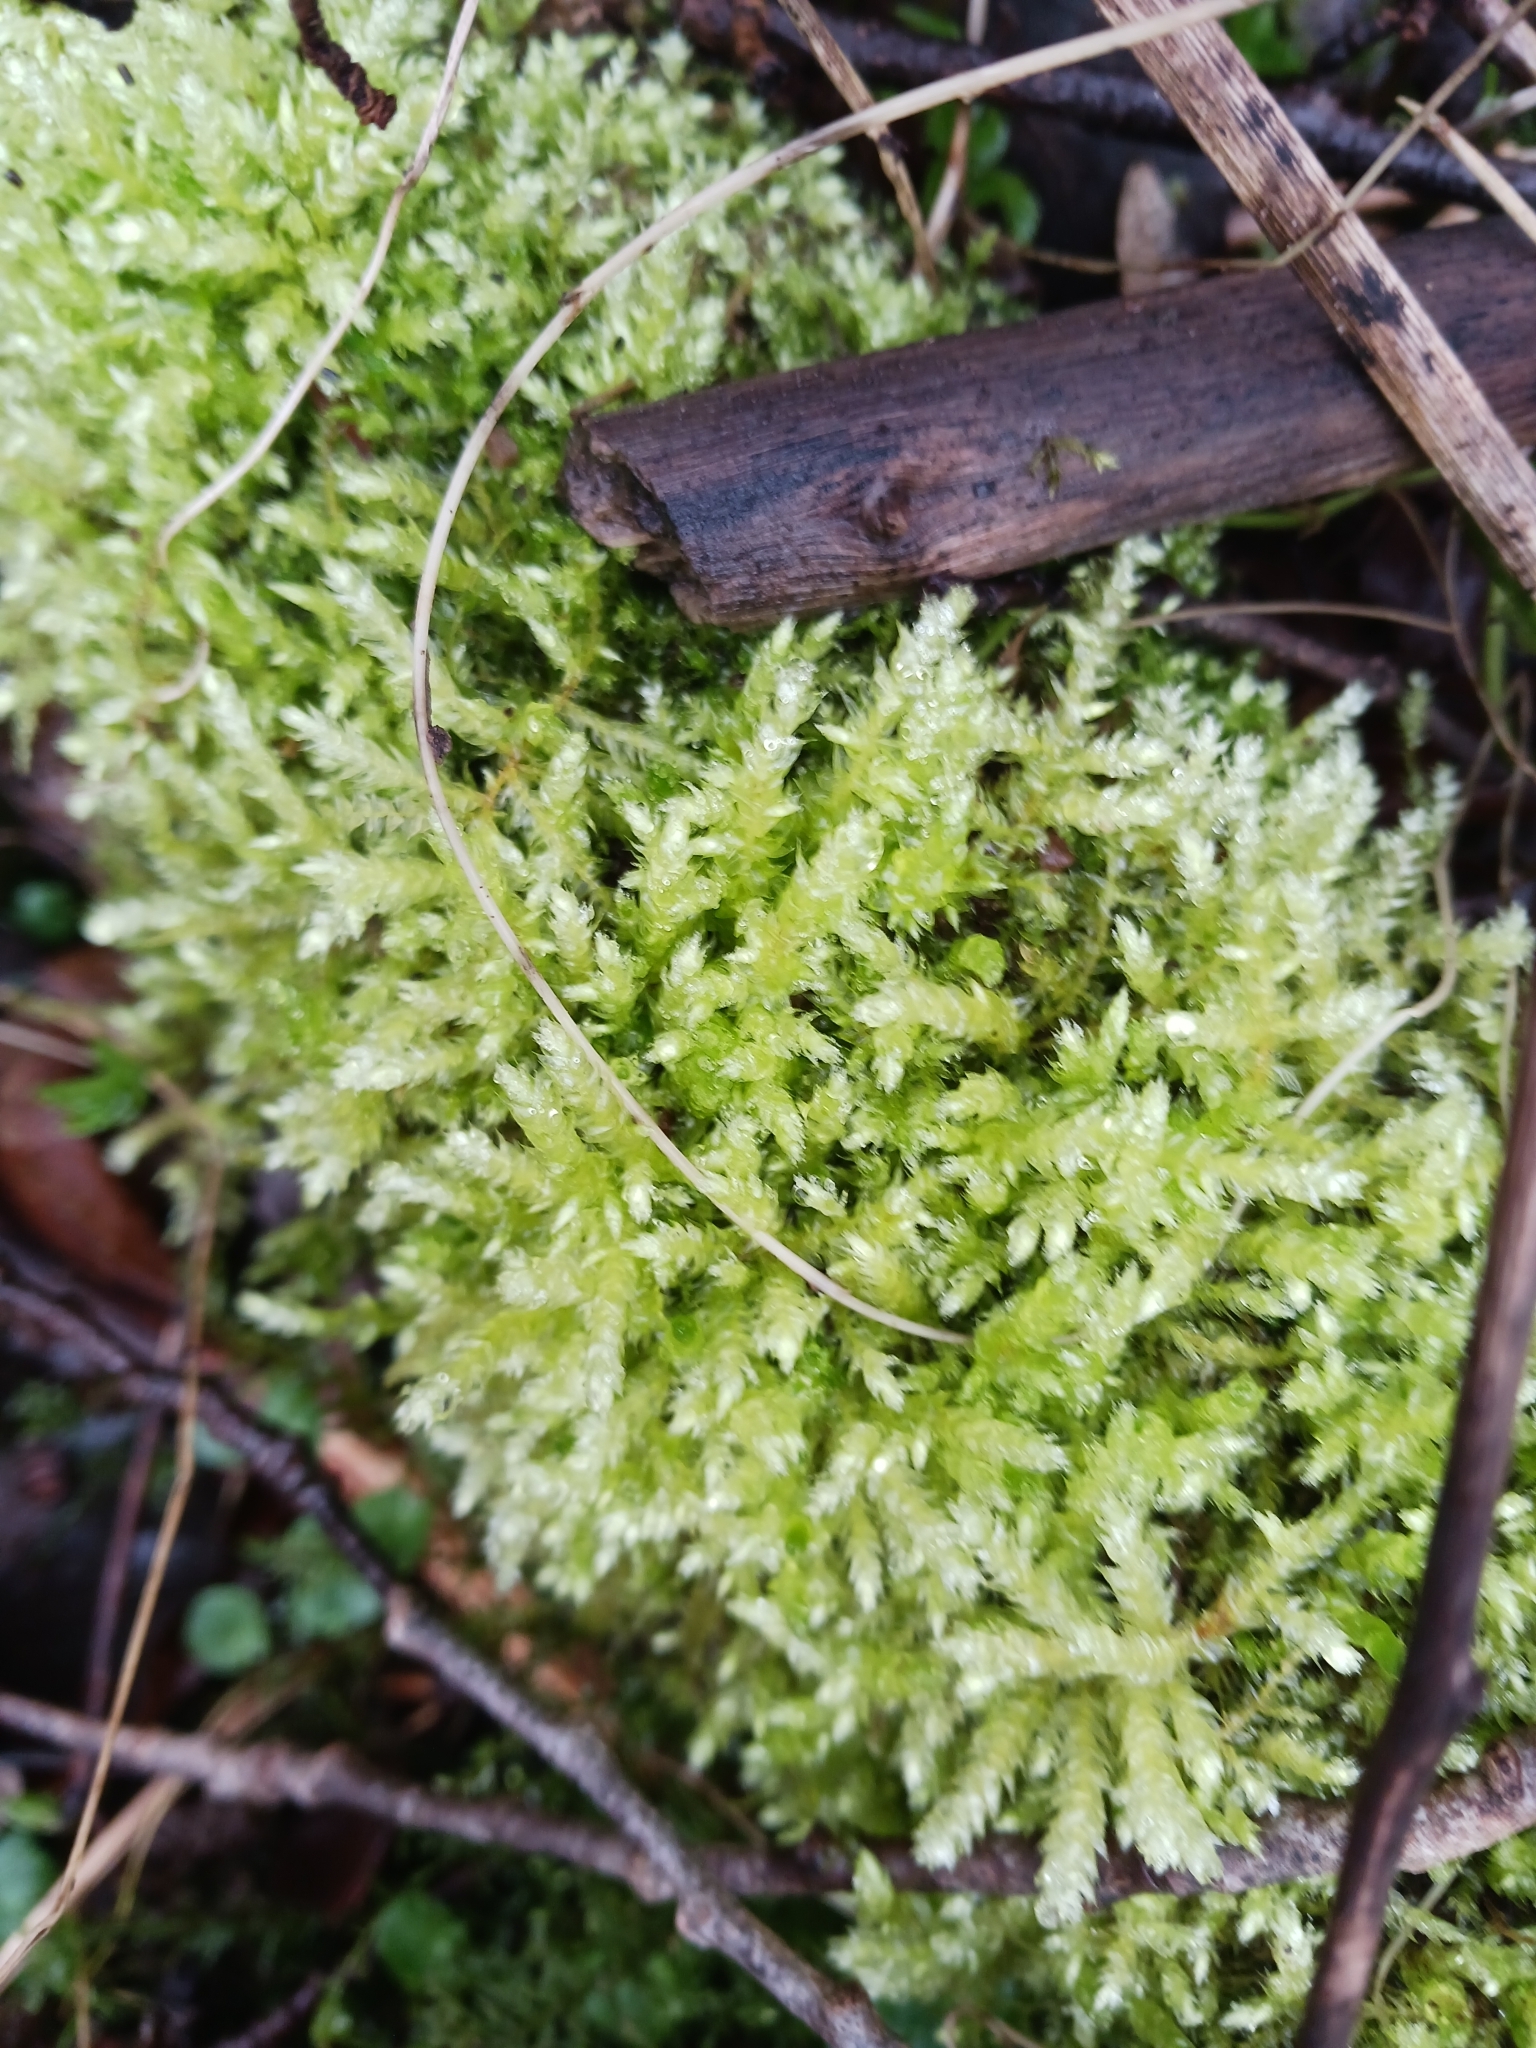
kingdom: Plantae
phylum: Bryophyta
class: Bryopsida
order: Hypnales
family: Brachytheciaceae
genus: Brachythecium
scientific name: Brachythecium rutabulum
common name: Rough-stalked feather-moss
